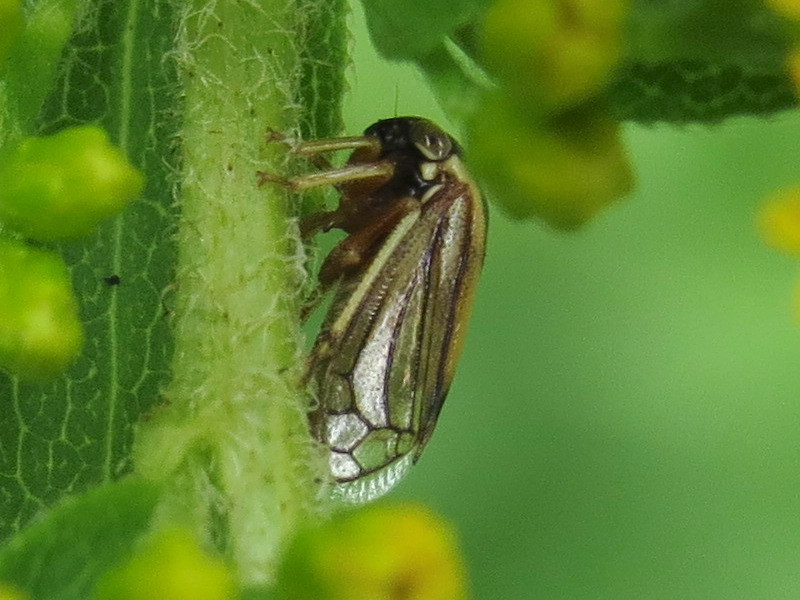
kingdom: Animalia
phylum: Arthropoda
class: Insecta
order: Hemiptera
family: Membracidae
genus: Acutalis
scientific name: Acutalis tartarea
